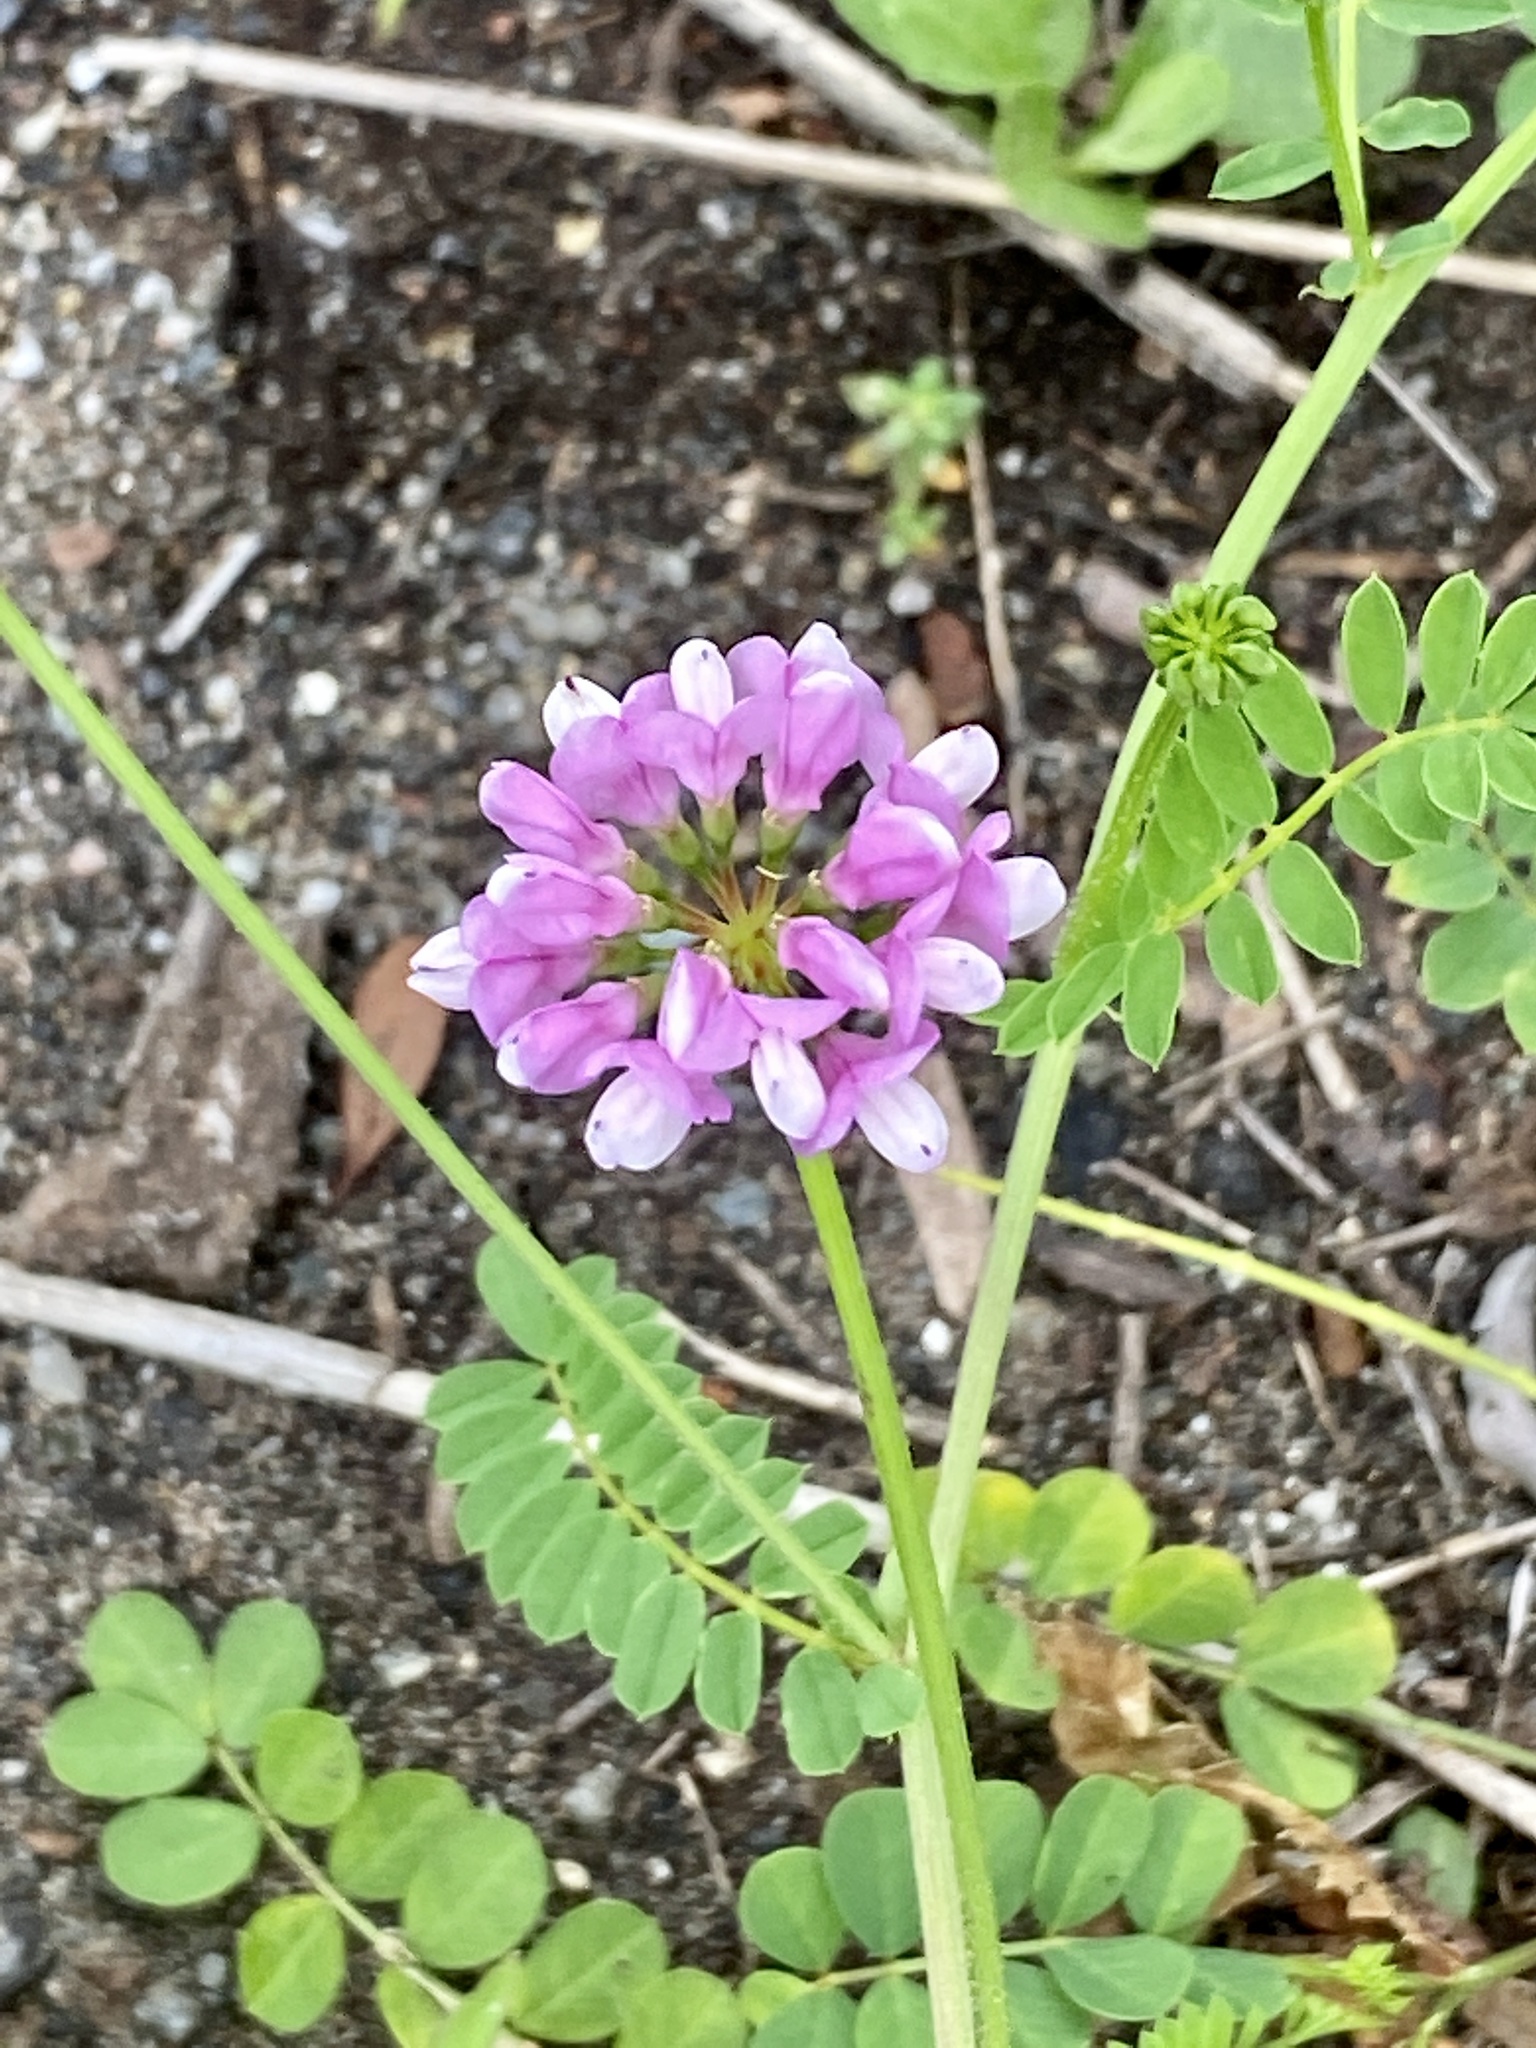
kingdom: Plantae
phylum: Tracheophyta
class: Magnoliopsida
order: Fabales
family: Fabaceae
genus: Coronilla
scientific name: Coronilla varia
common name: Crownvetch
